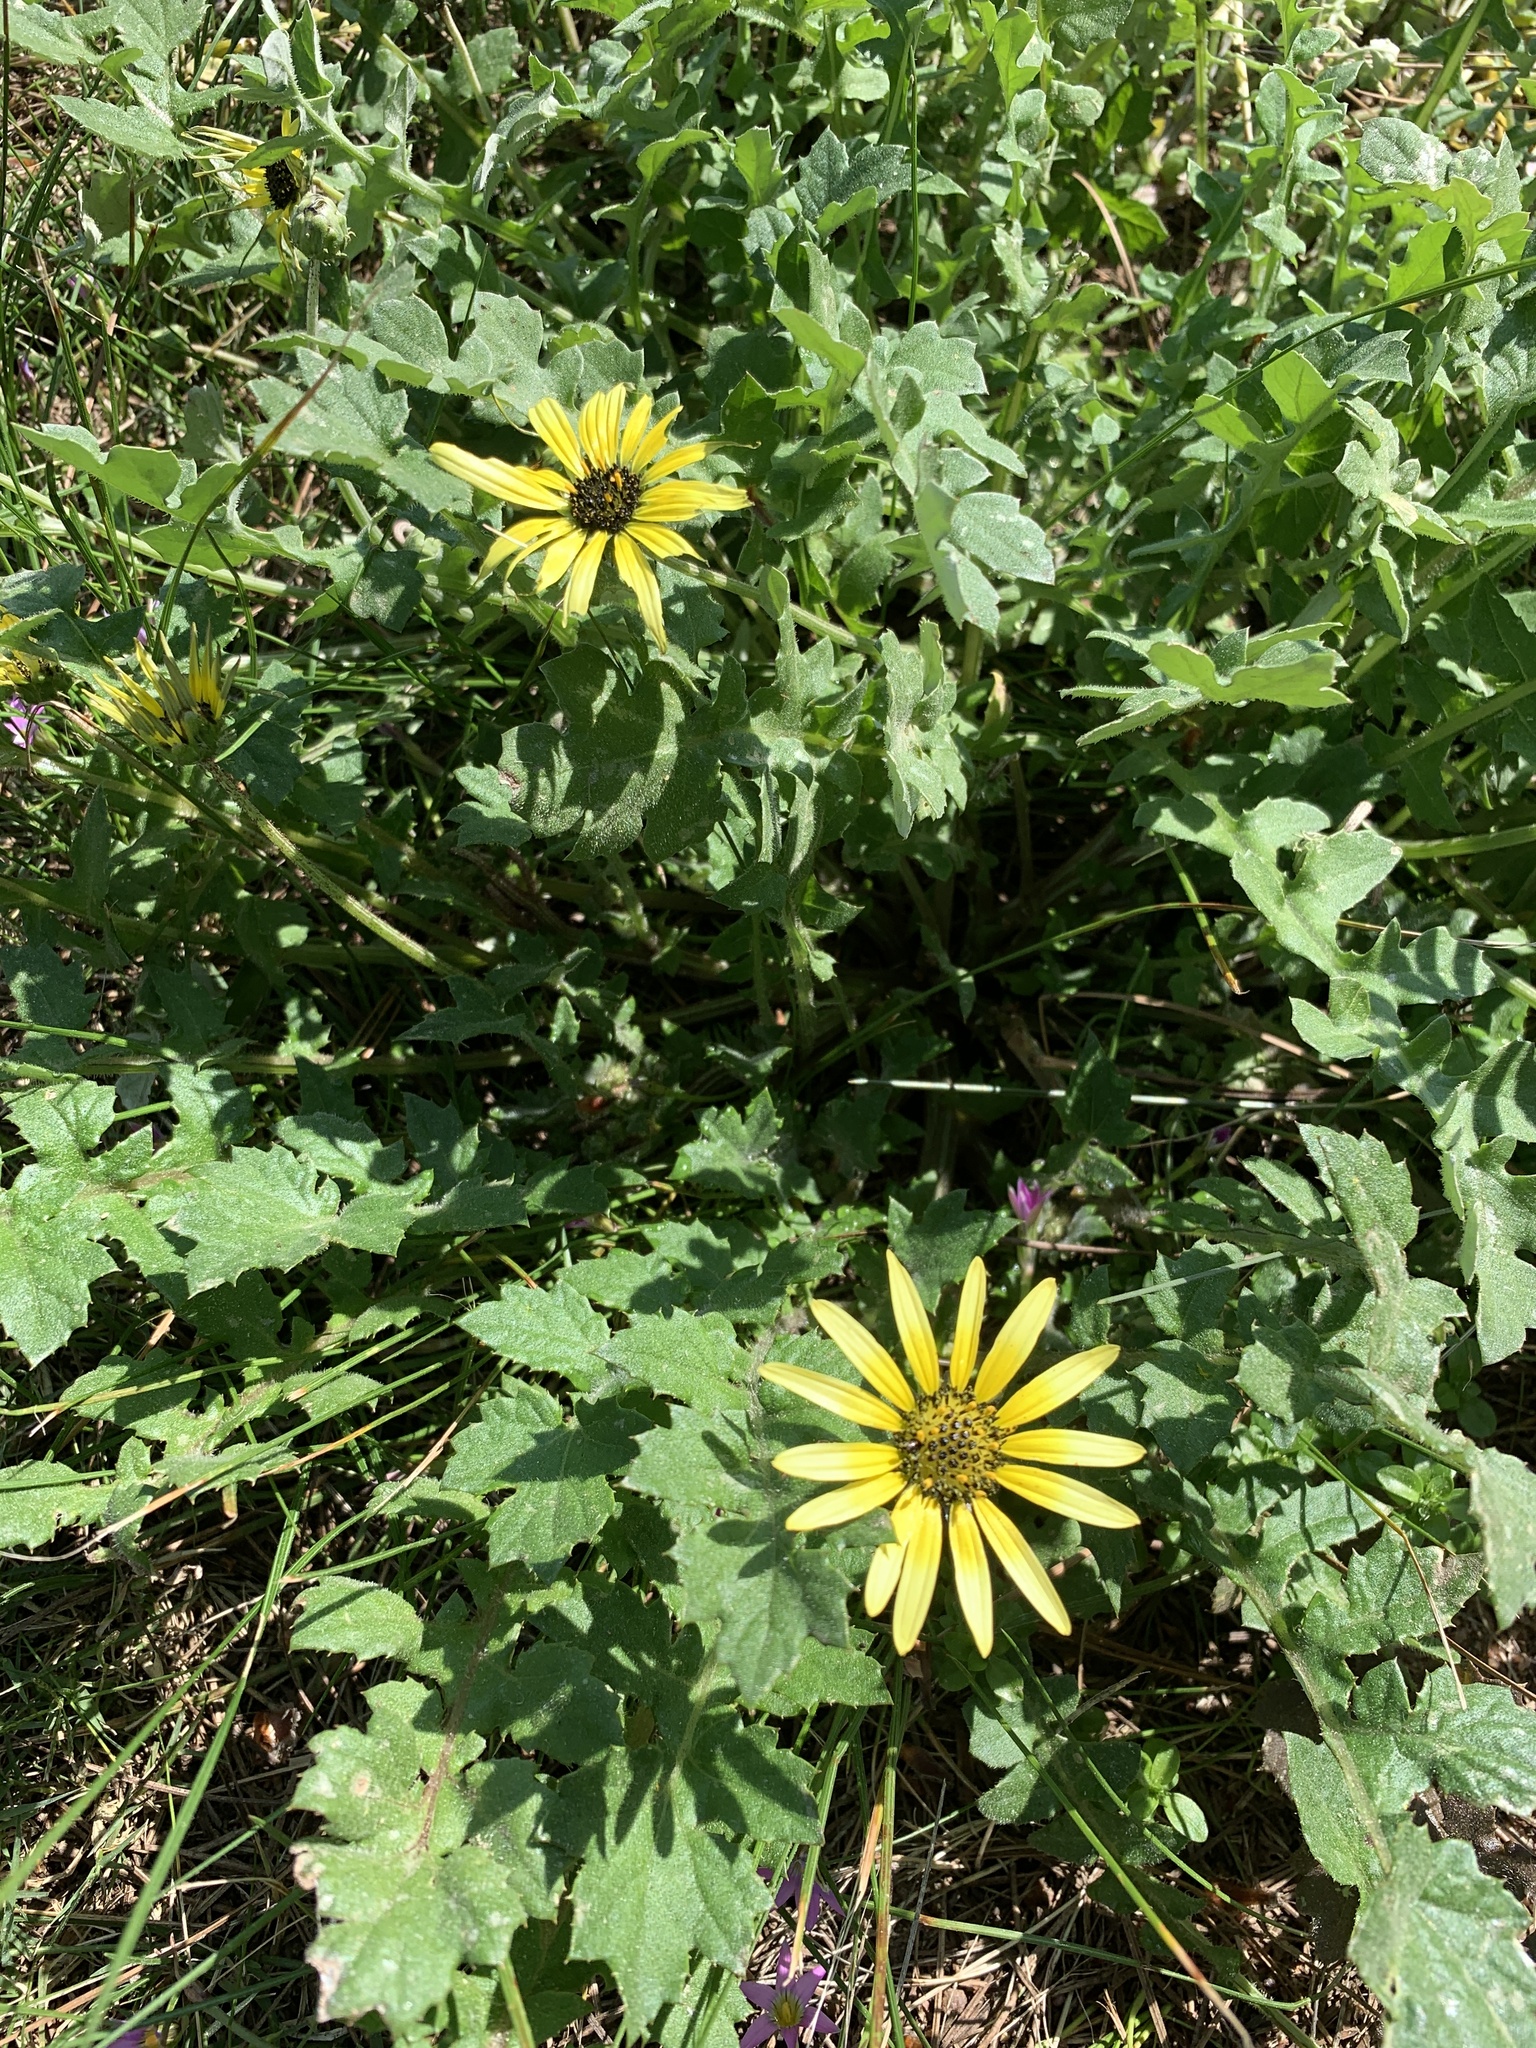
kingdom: Plantae
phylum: Tracheophyta
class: Magnoliopsida
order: Asterales
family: Asteraceae
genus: Arctotheca
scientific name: Arctotheca calendula
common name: Capeweed
